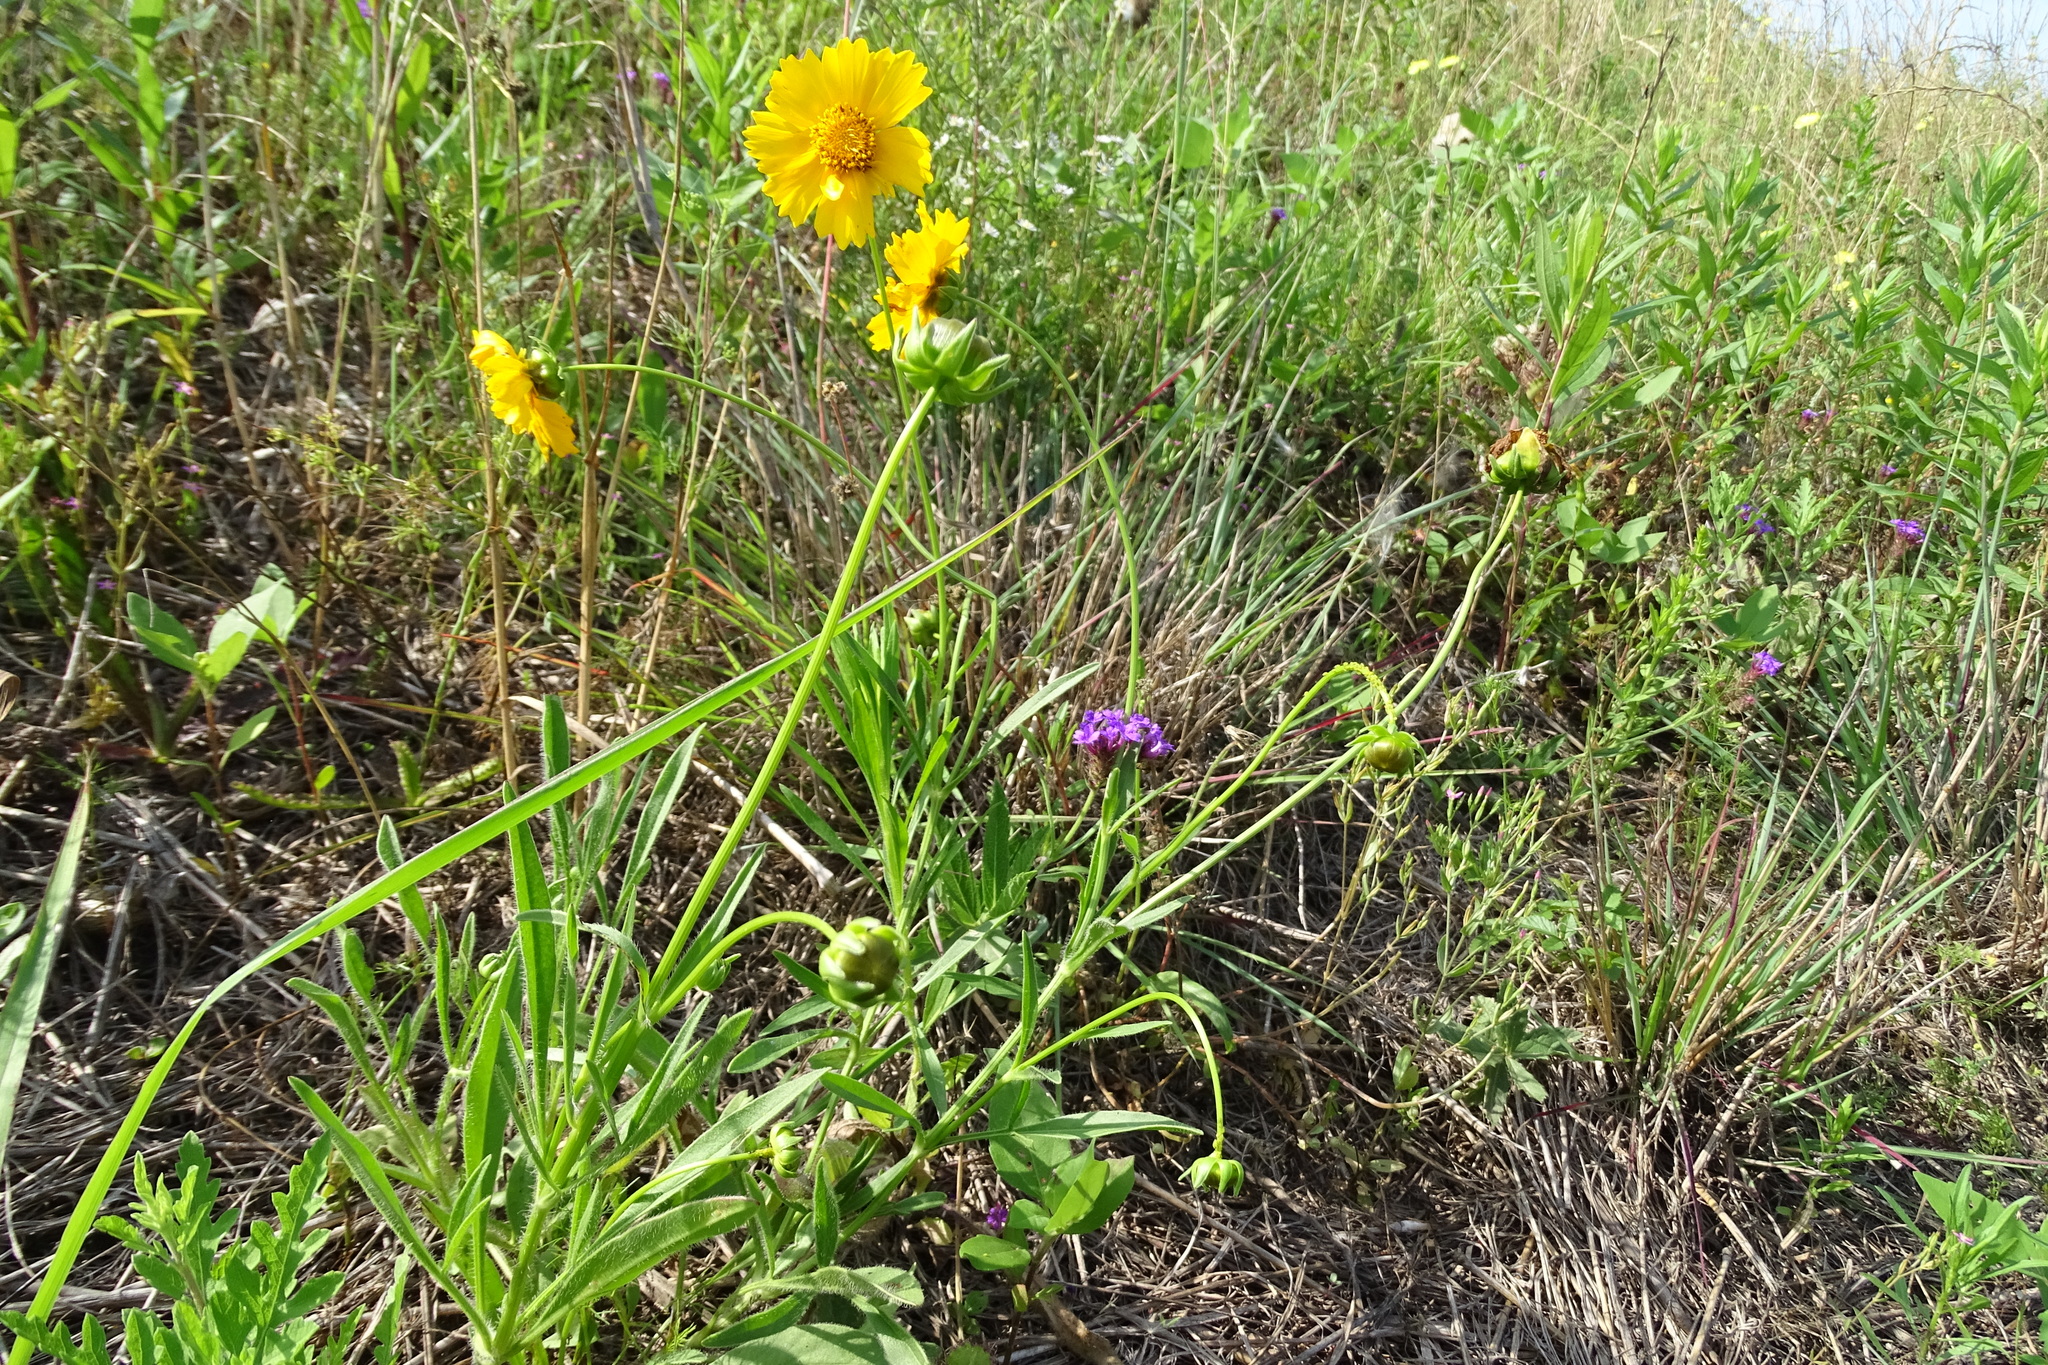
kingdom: Plantae
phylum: Tracheophyta
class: Magnoliopsida
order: Asterales
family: Asteraceae
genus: Coreopsis
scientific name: Coreopsis lanceolata
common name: Garden coreopsis
